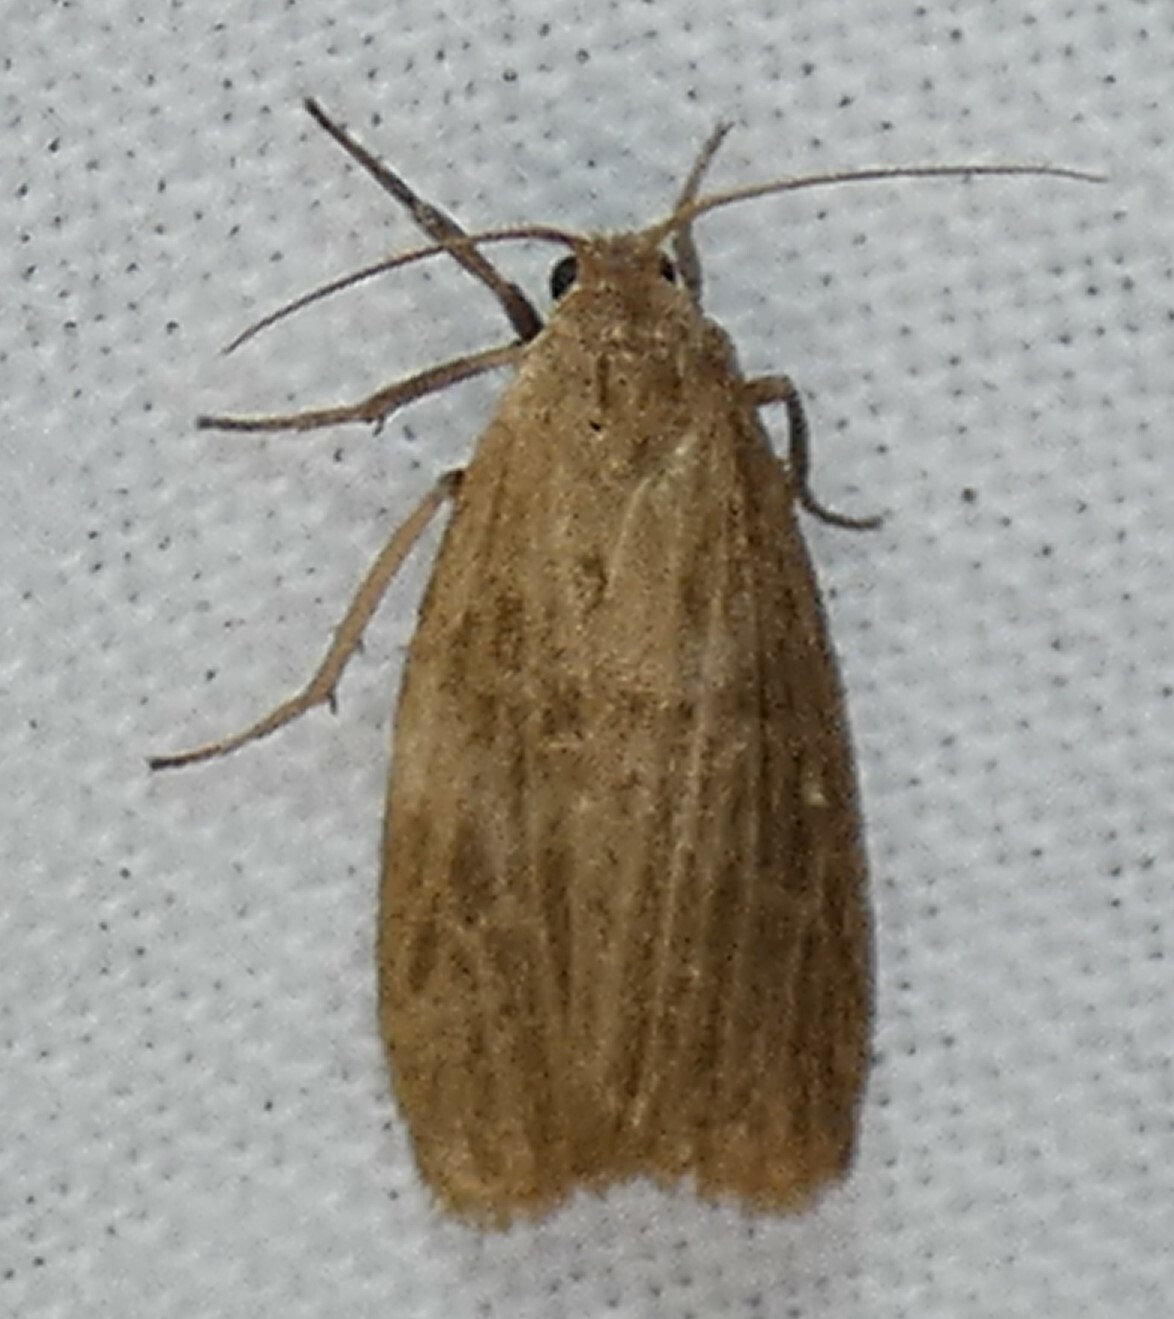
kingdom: Animalia
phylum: Arthropoda
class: Insecta
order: Lepidoptera
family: Erebidae
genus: Crambidia
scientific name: Crambidia pallida
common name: Pale lichen moth
